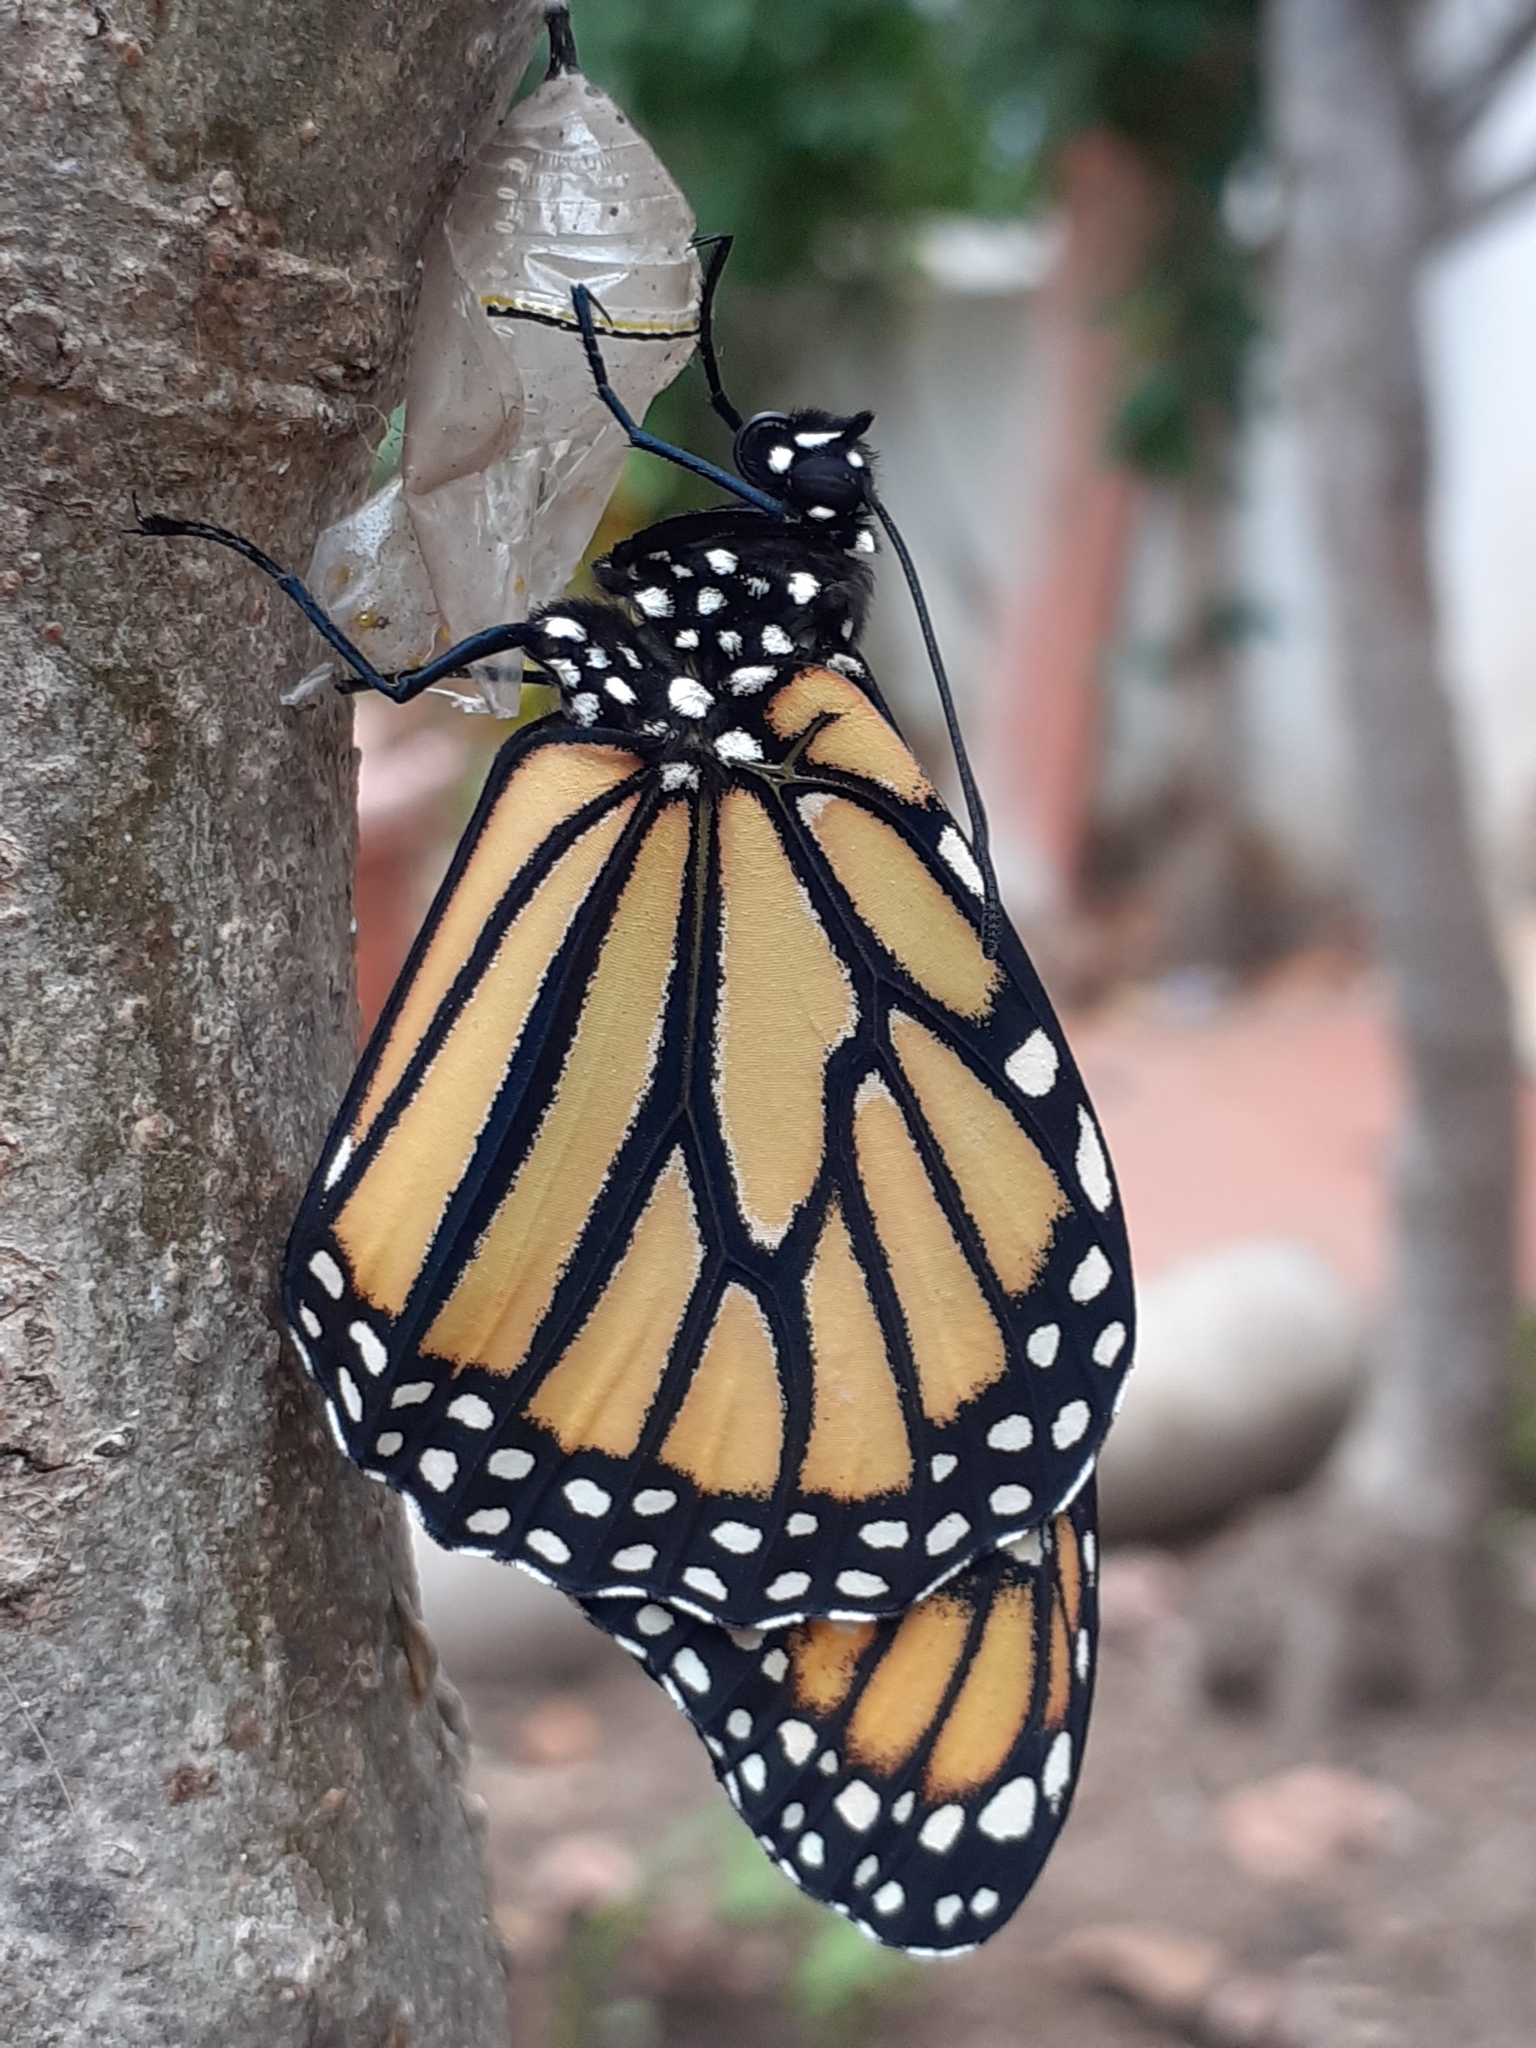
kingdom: Animalia
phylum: Arthropoda
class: Insecta
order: Lepidoptera
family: Nymphalidae
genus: Danaus
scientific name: Danaus plexippus
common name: Monarch
